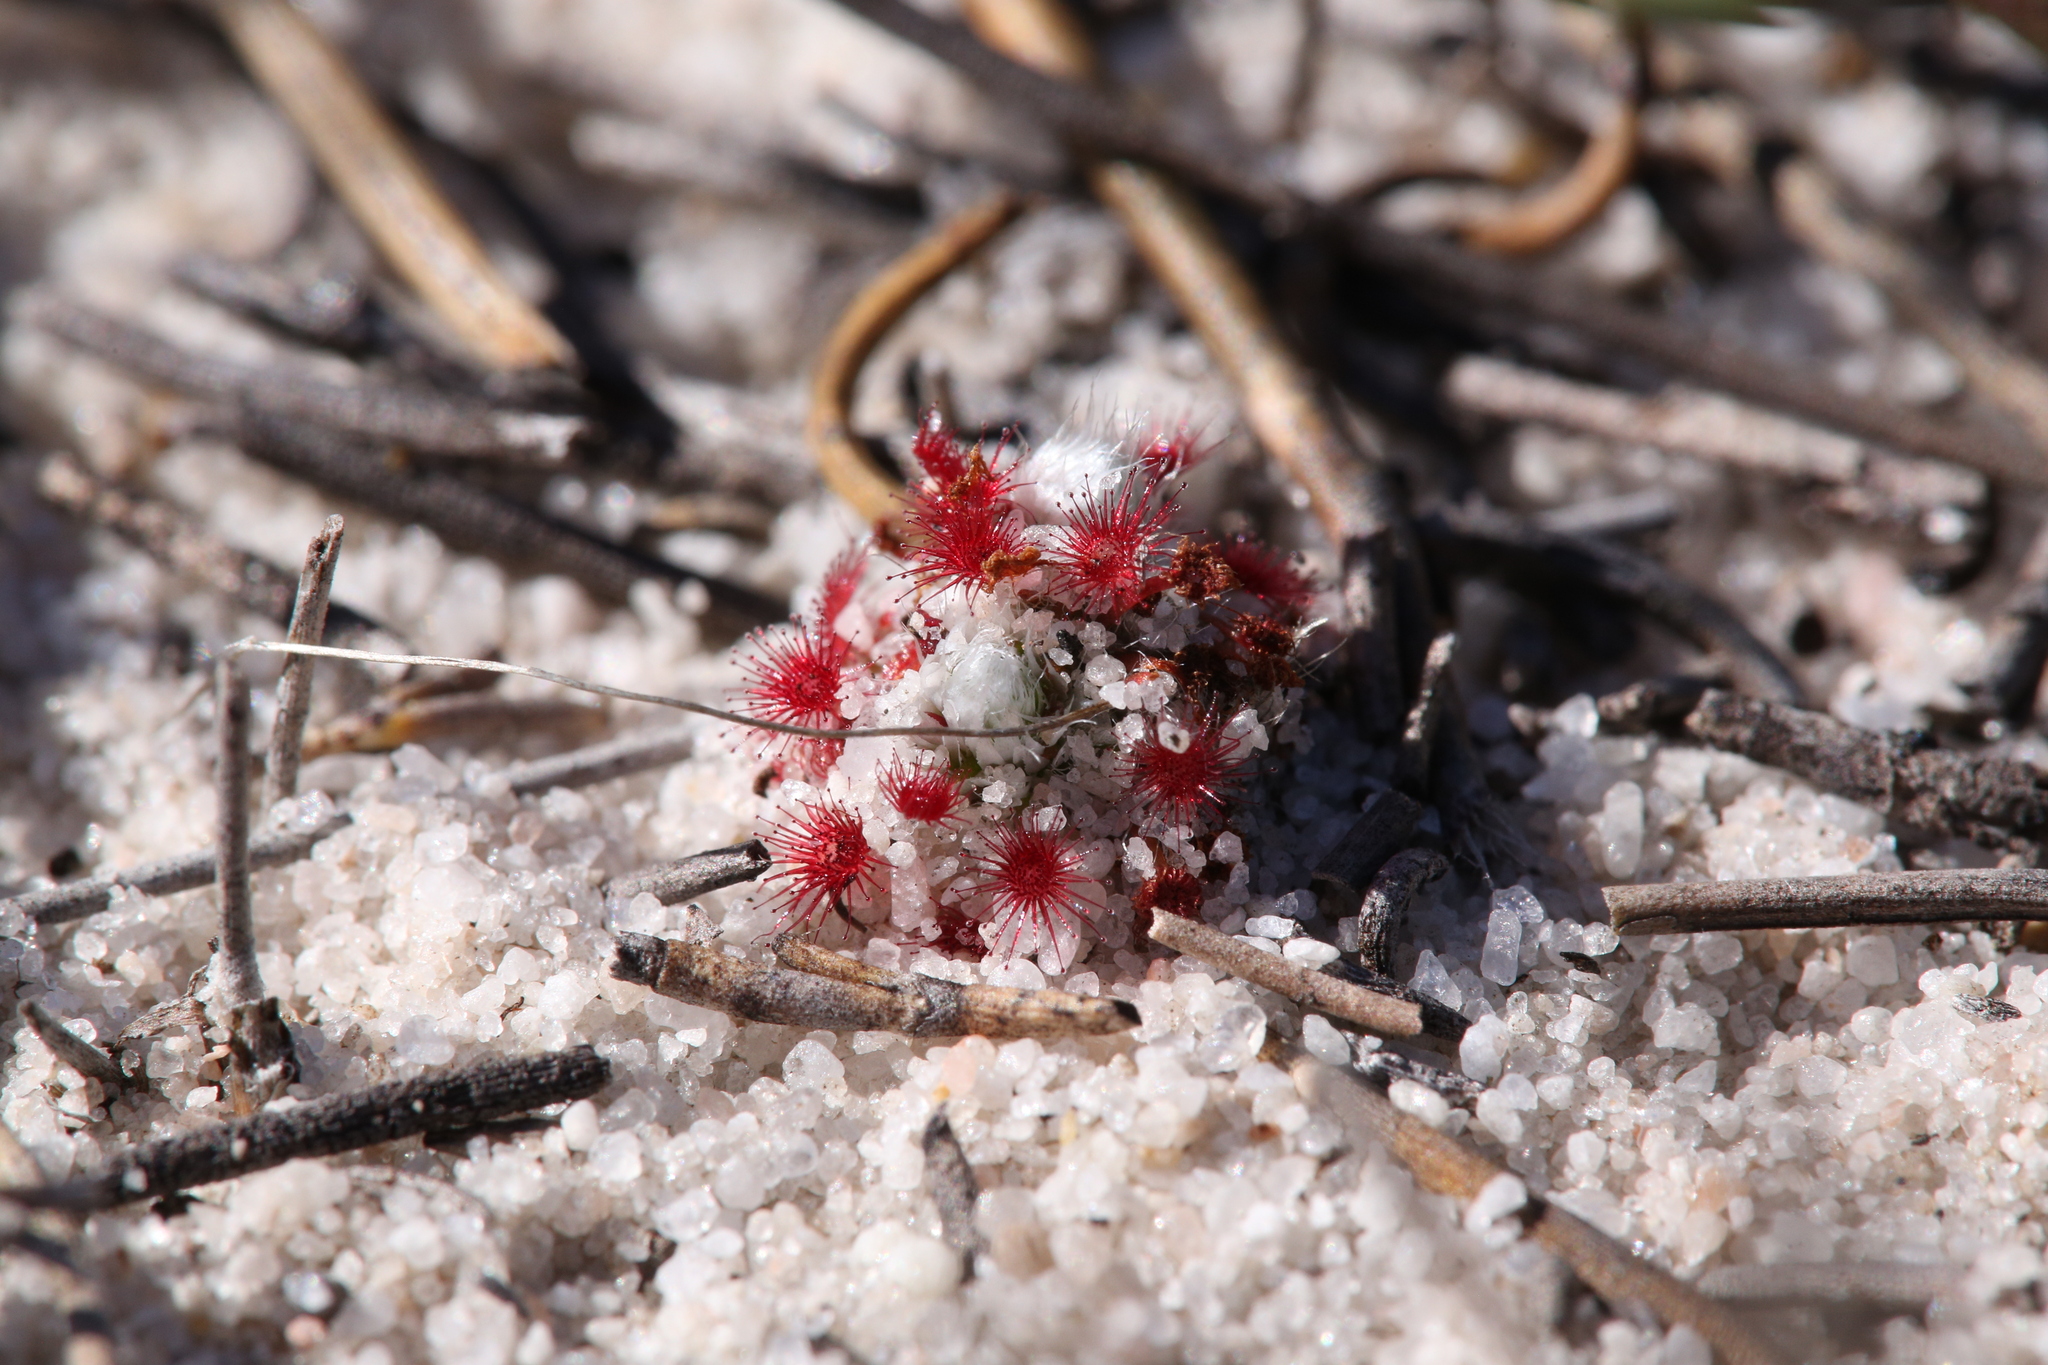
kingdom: Plantae
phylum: Tracheophyta
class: Magnoliopsida
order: Caryophyllales
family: Droseraceae
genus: Drosera
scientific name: Drosera paleacea
